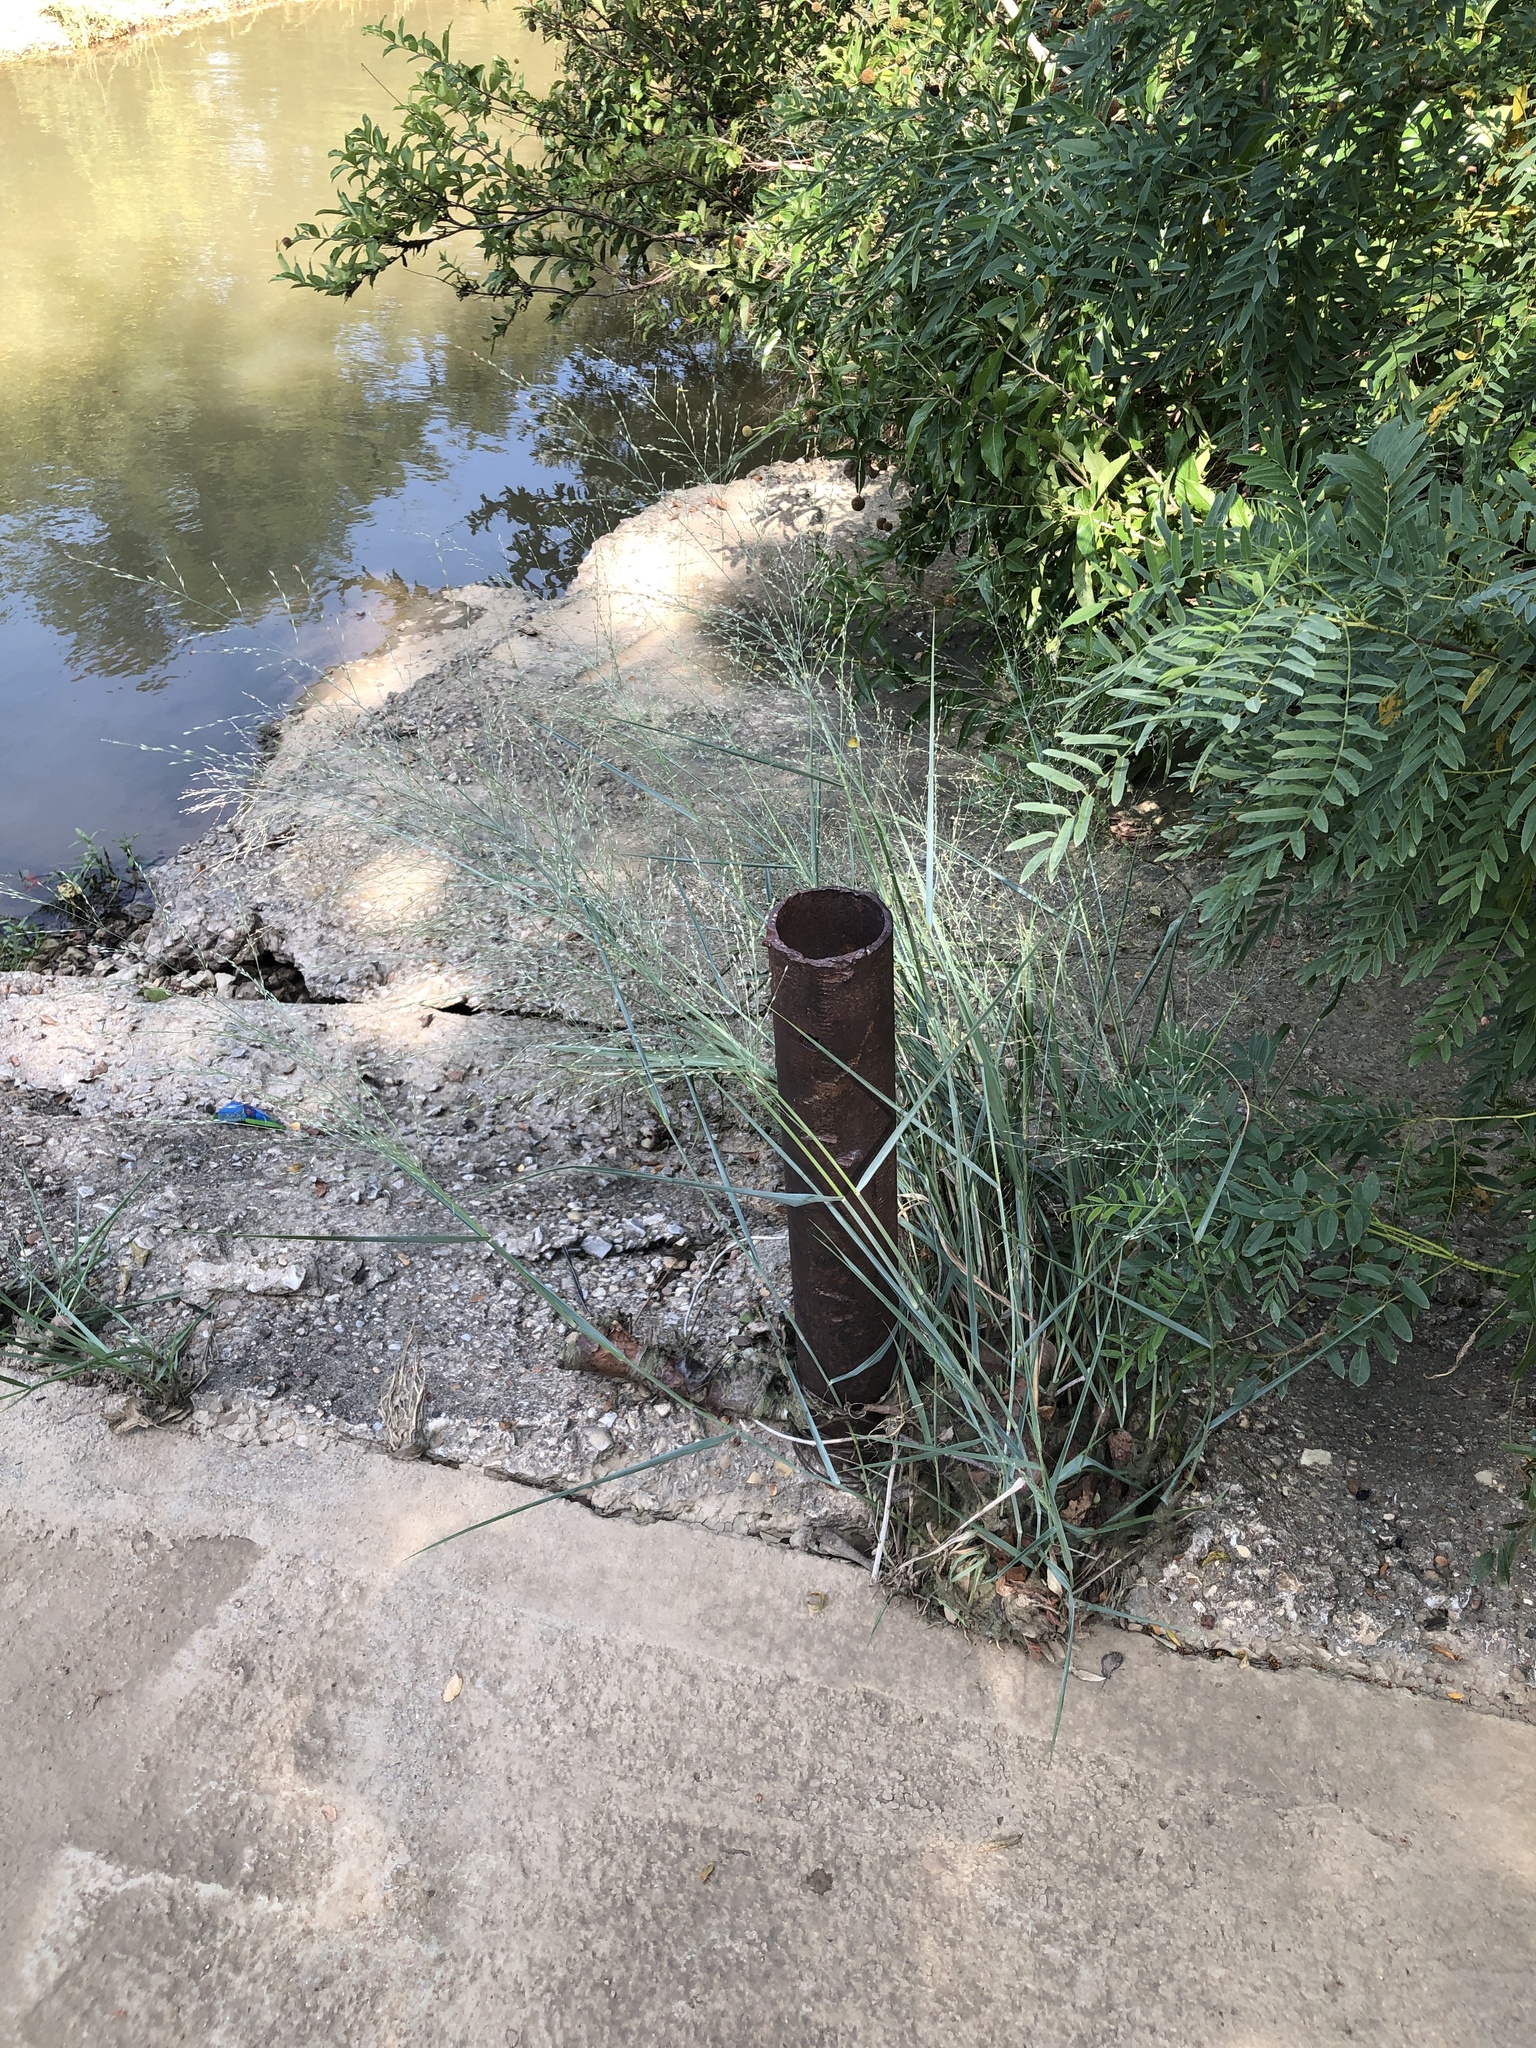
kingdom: Plantae
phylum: Tracheophyta
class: Liliopsida
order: Poales
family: Poaceae
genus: Panicum
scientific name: Panicum virgatum
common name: Switchgrass
